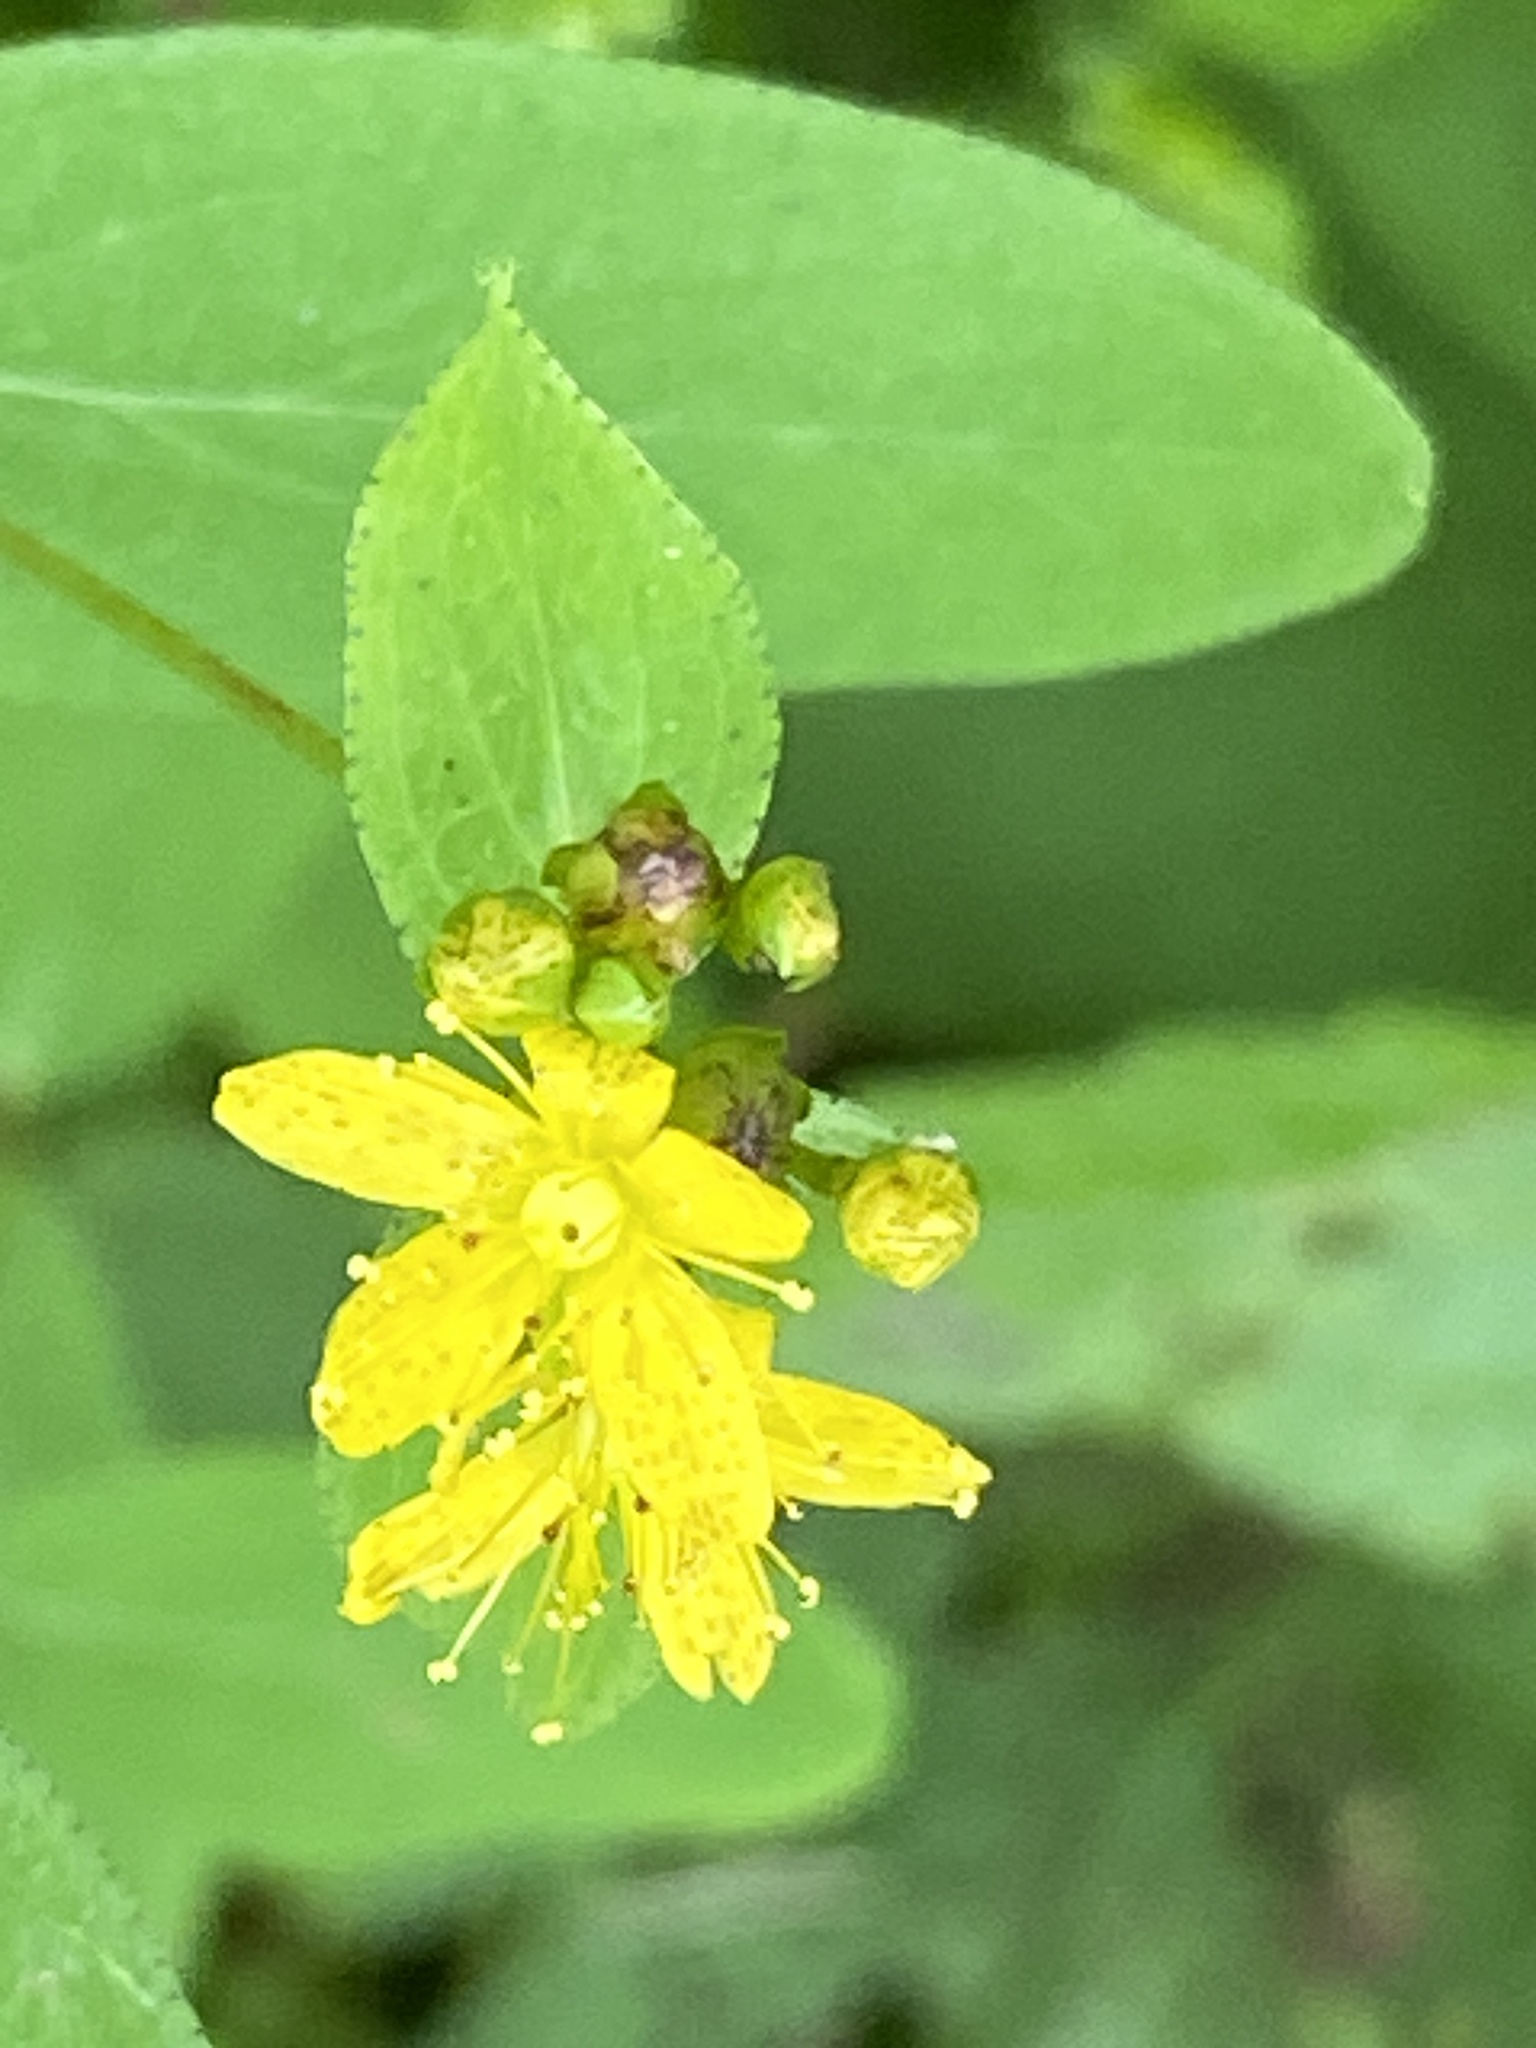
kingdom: Plantae
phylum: Tracheophyta
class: Magnoliopsida
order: Malpighiales
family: Hypericaceae
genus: Hypericum
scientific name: Hypericum punctatum
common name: Spotted st. john's-wort
